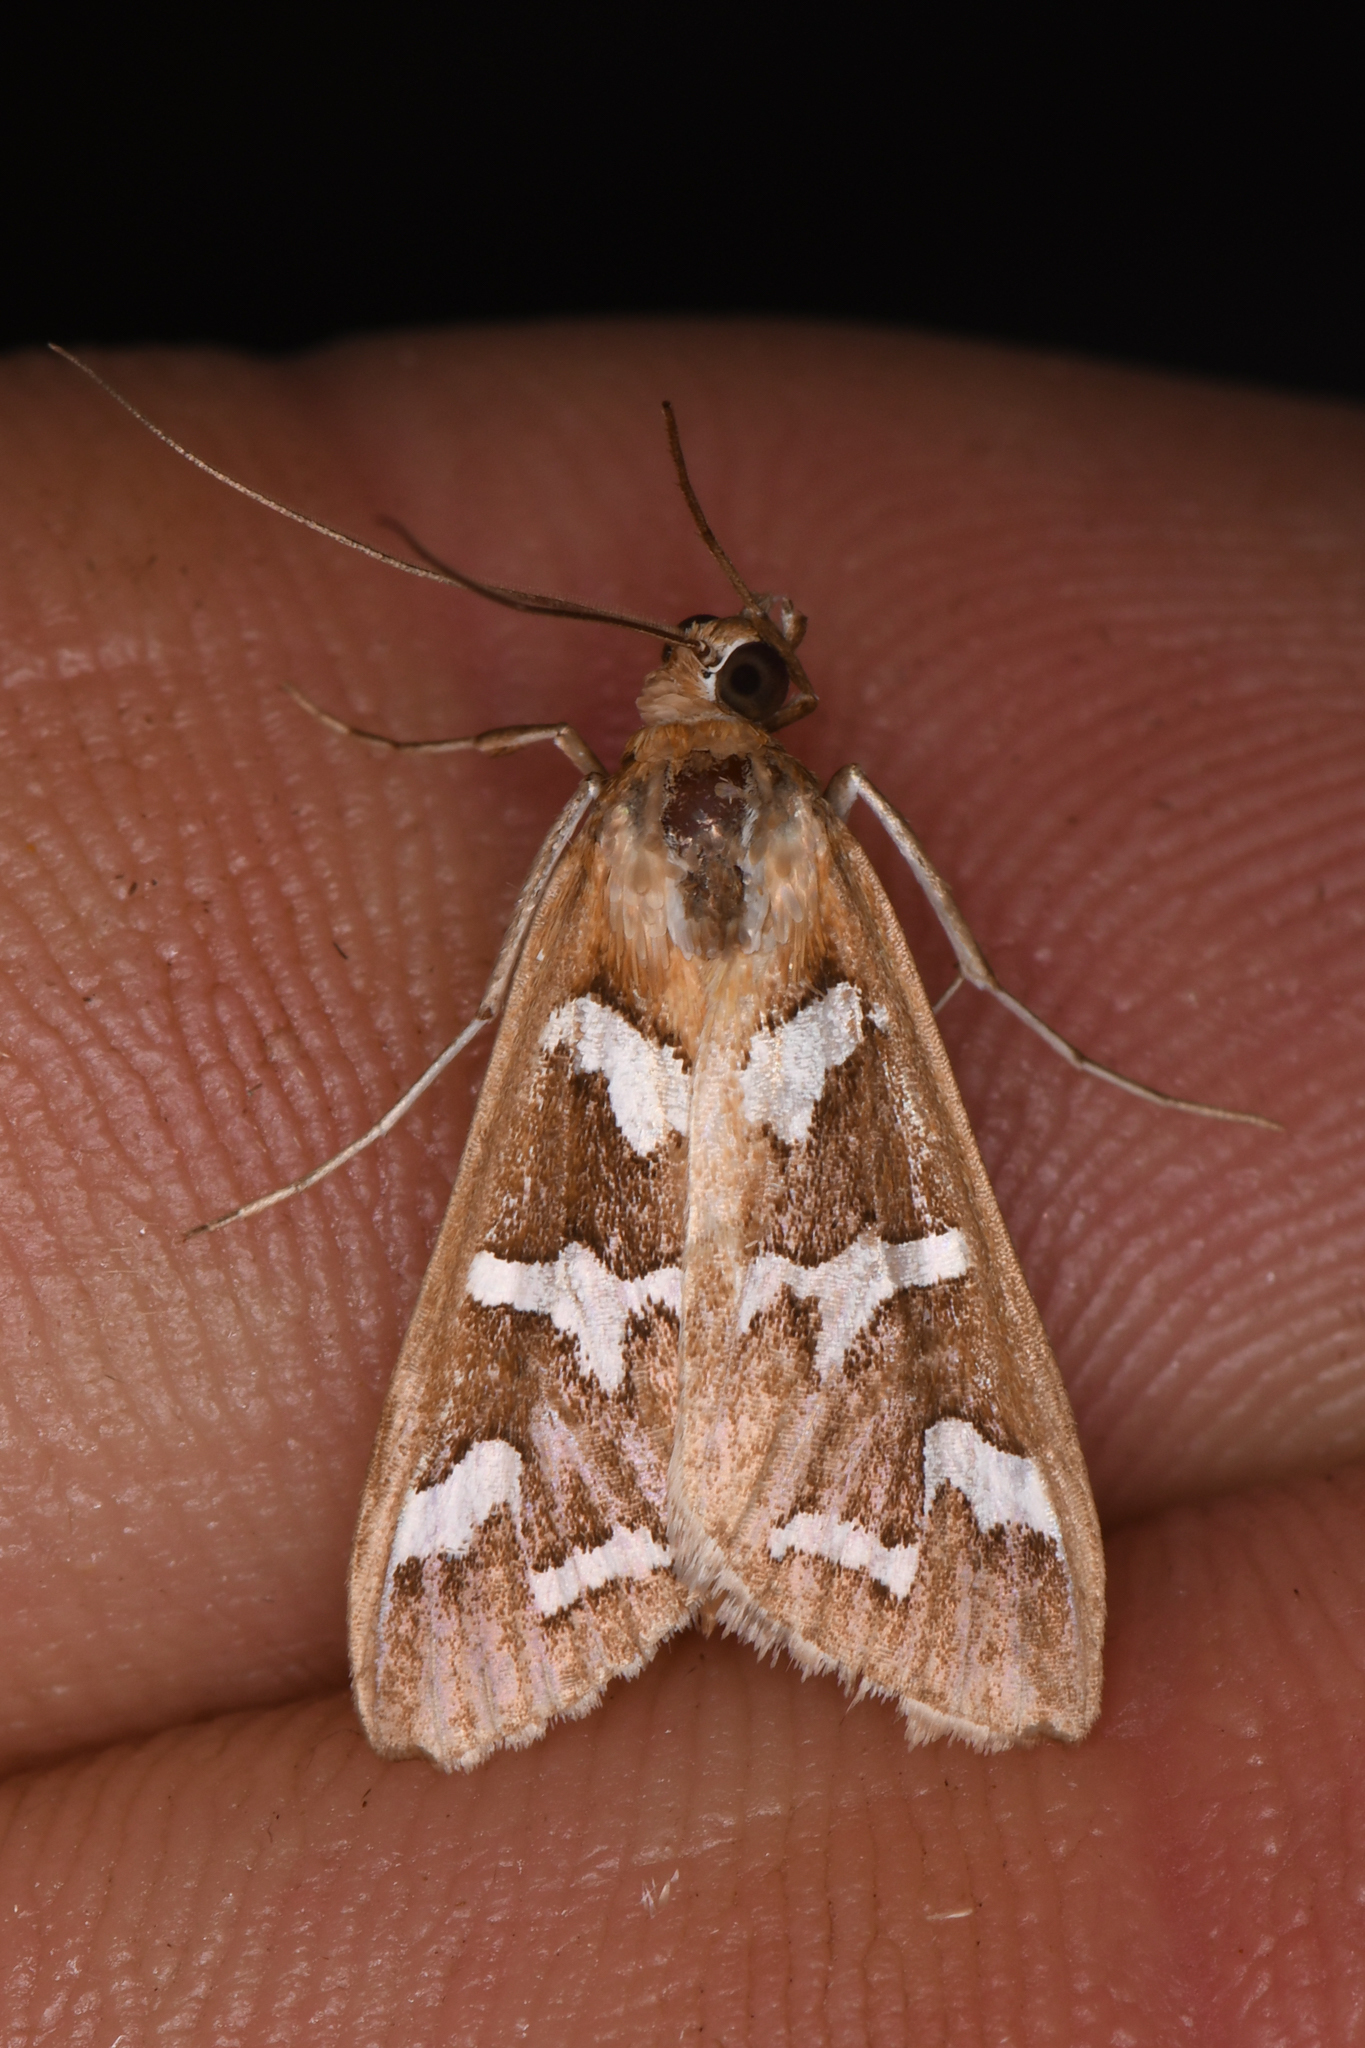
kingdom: Animalia
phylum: Arthropoda
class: Insecta
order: Lepidoptera
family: Crambidae
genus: Diastictis
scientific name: Diastictis fracturalis
